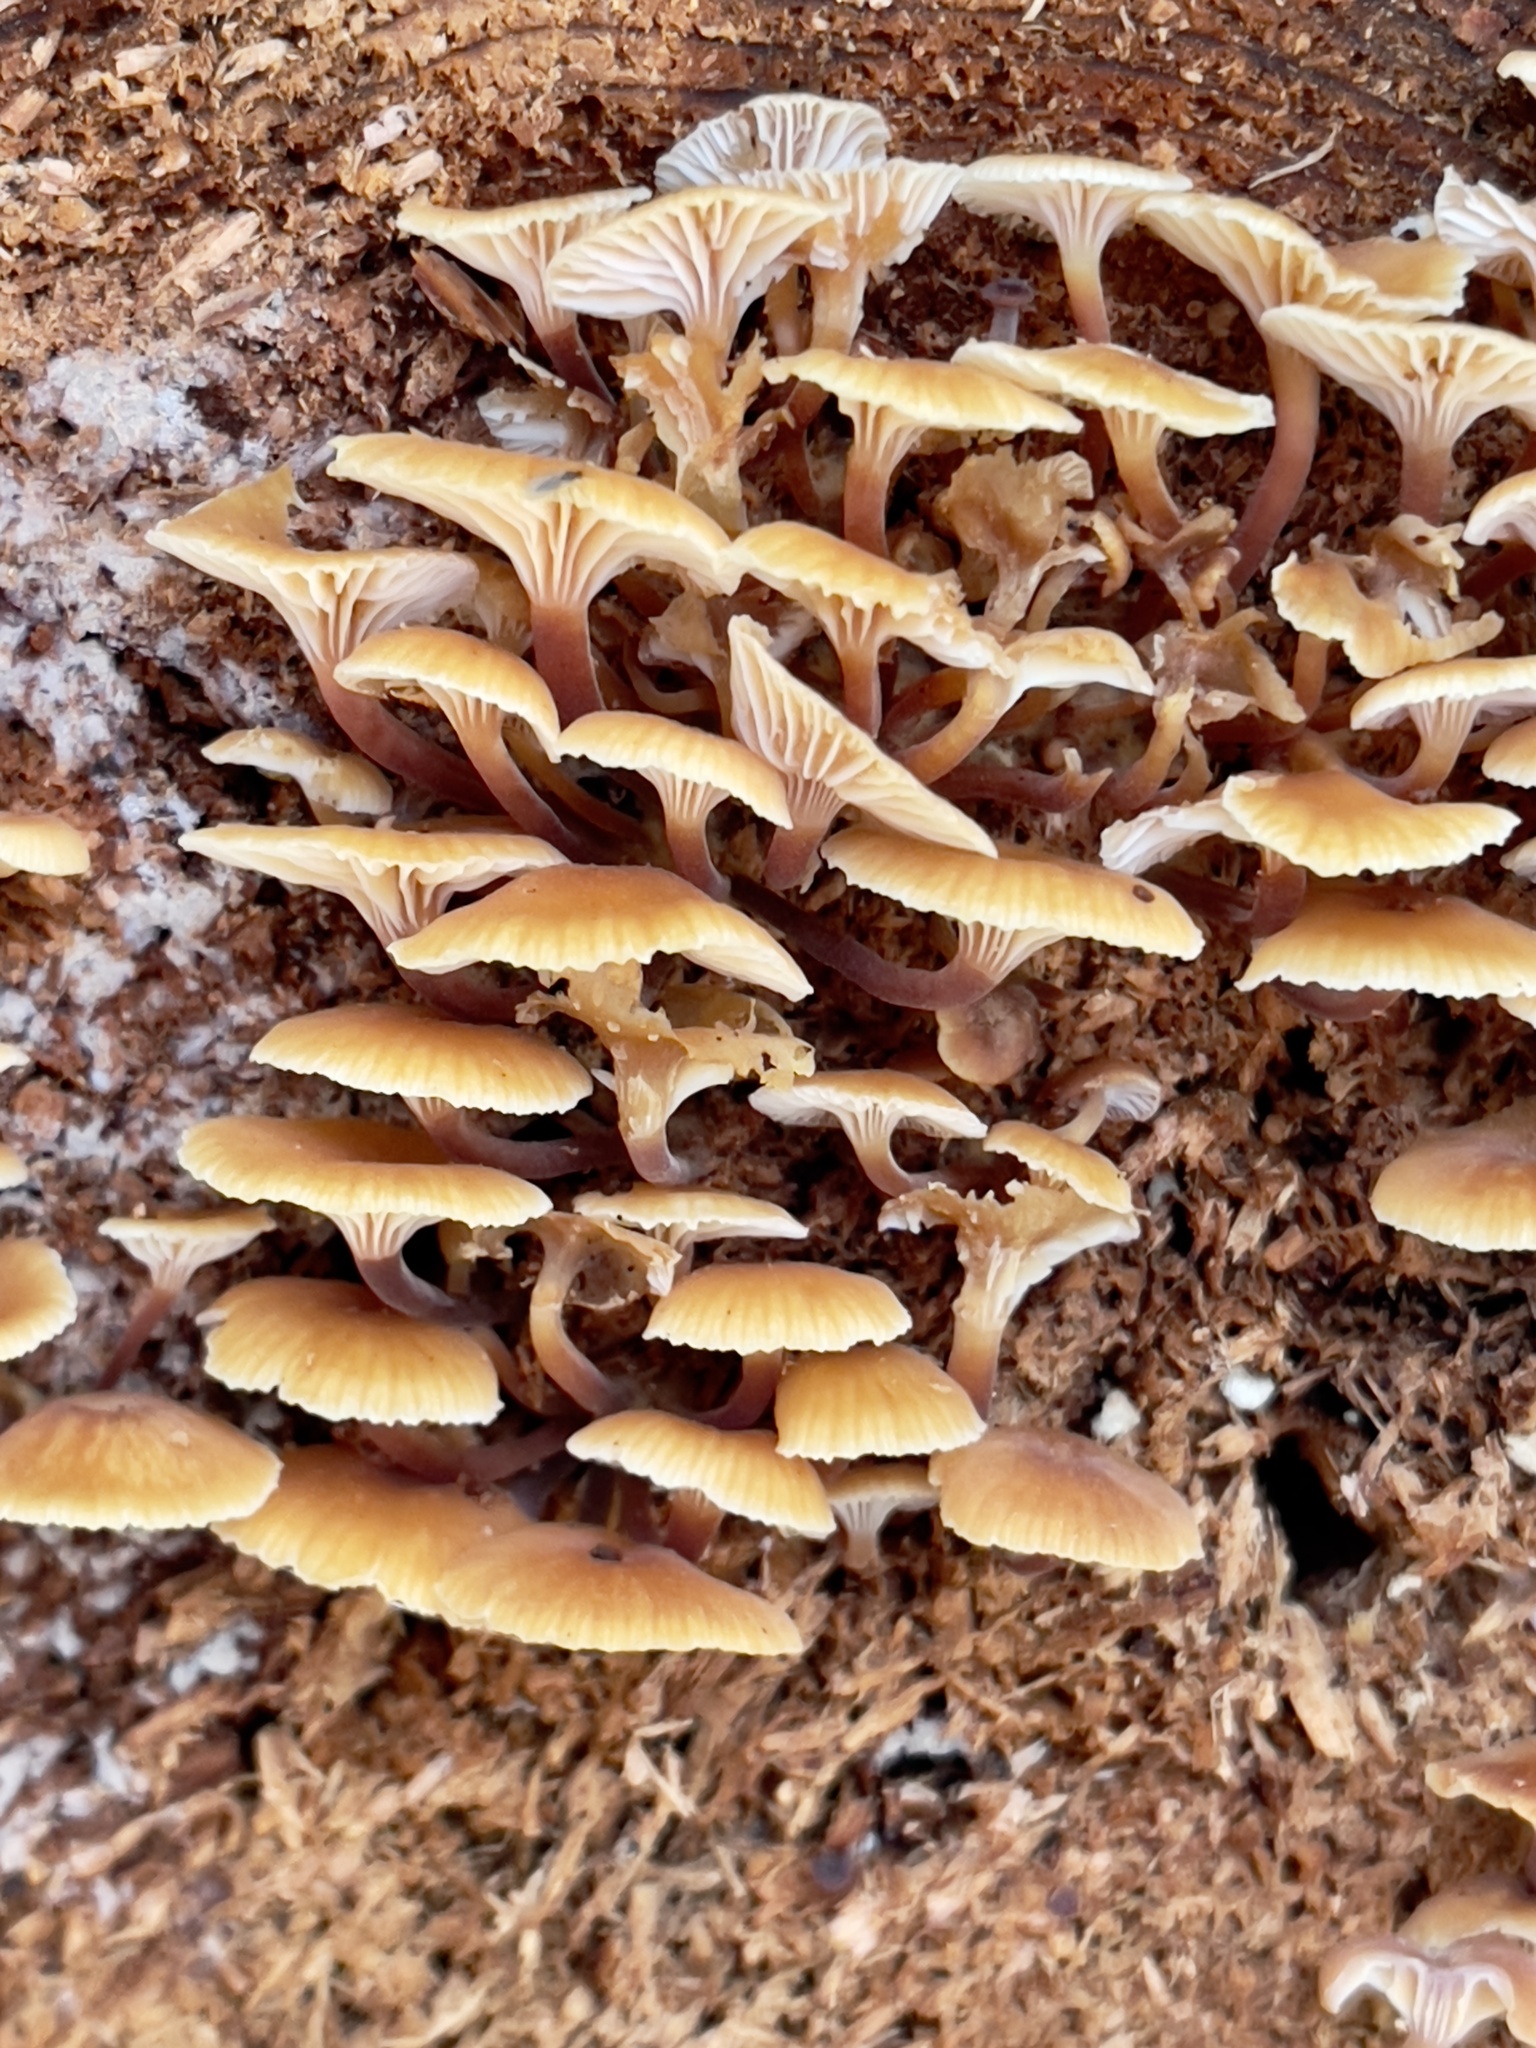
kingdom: Fungi
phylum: Basidiomycota
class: Agaricomycetes
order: Agaricales
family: Mycenaceae
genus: Xeromphalina
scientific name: Xeromphalina campanella
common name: Pinewood gingertail
